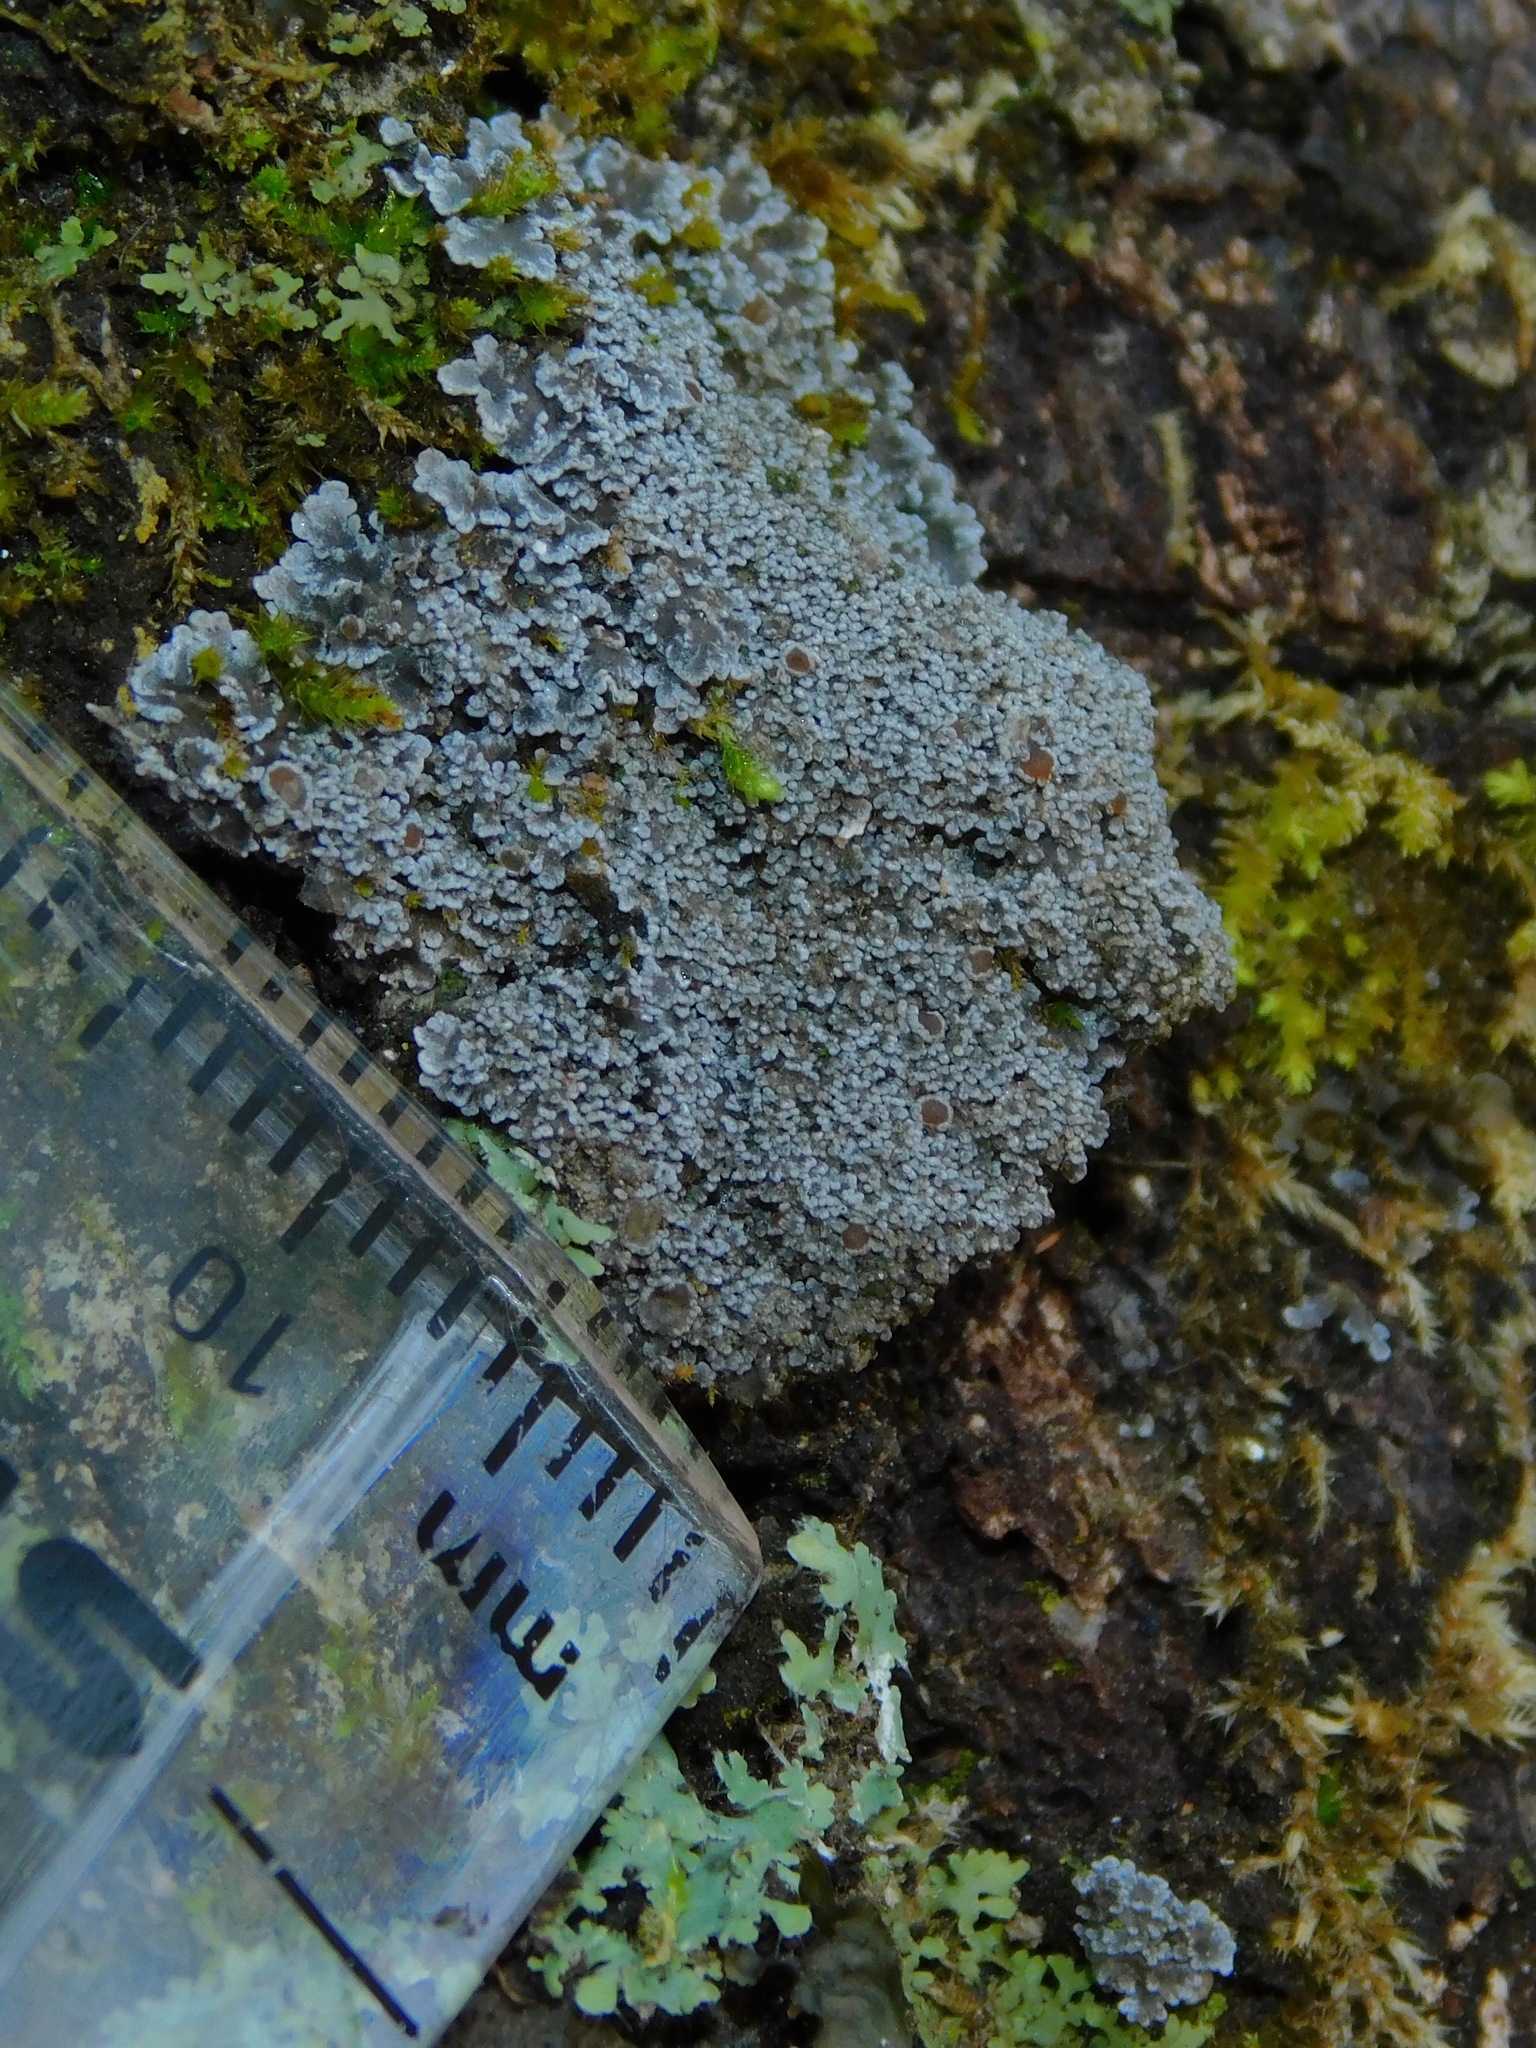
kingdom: Fungi
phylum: Ascomycota
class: Lecanoromycetes
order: Peltigerales
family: Pannariaceae
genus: Protopannaria
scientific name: Protopannaria pezizoides
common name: Brown-gray m oss-shingle
